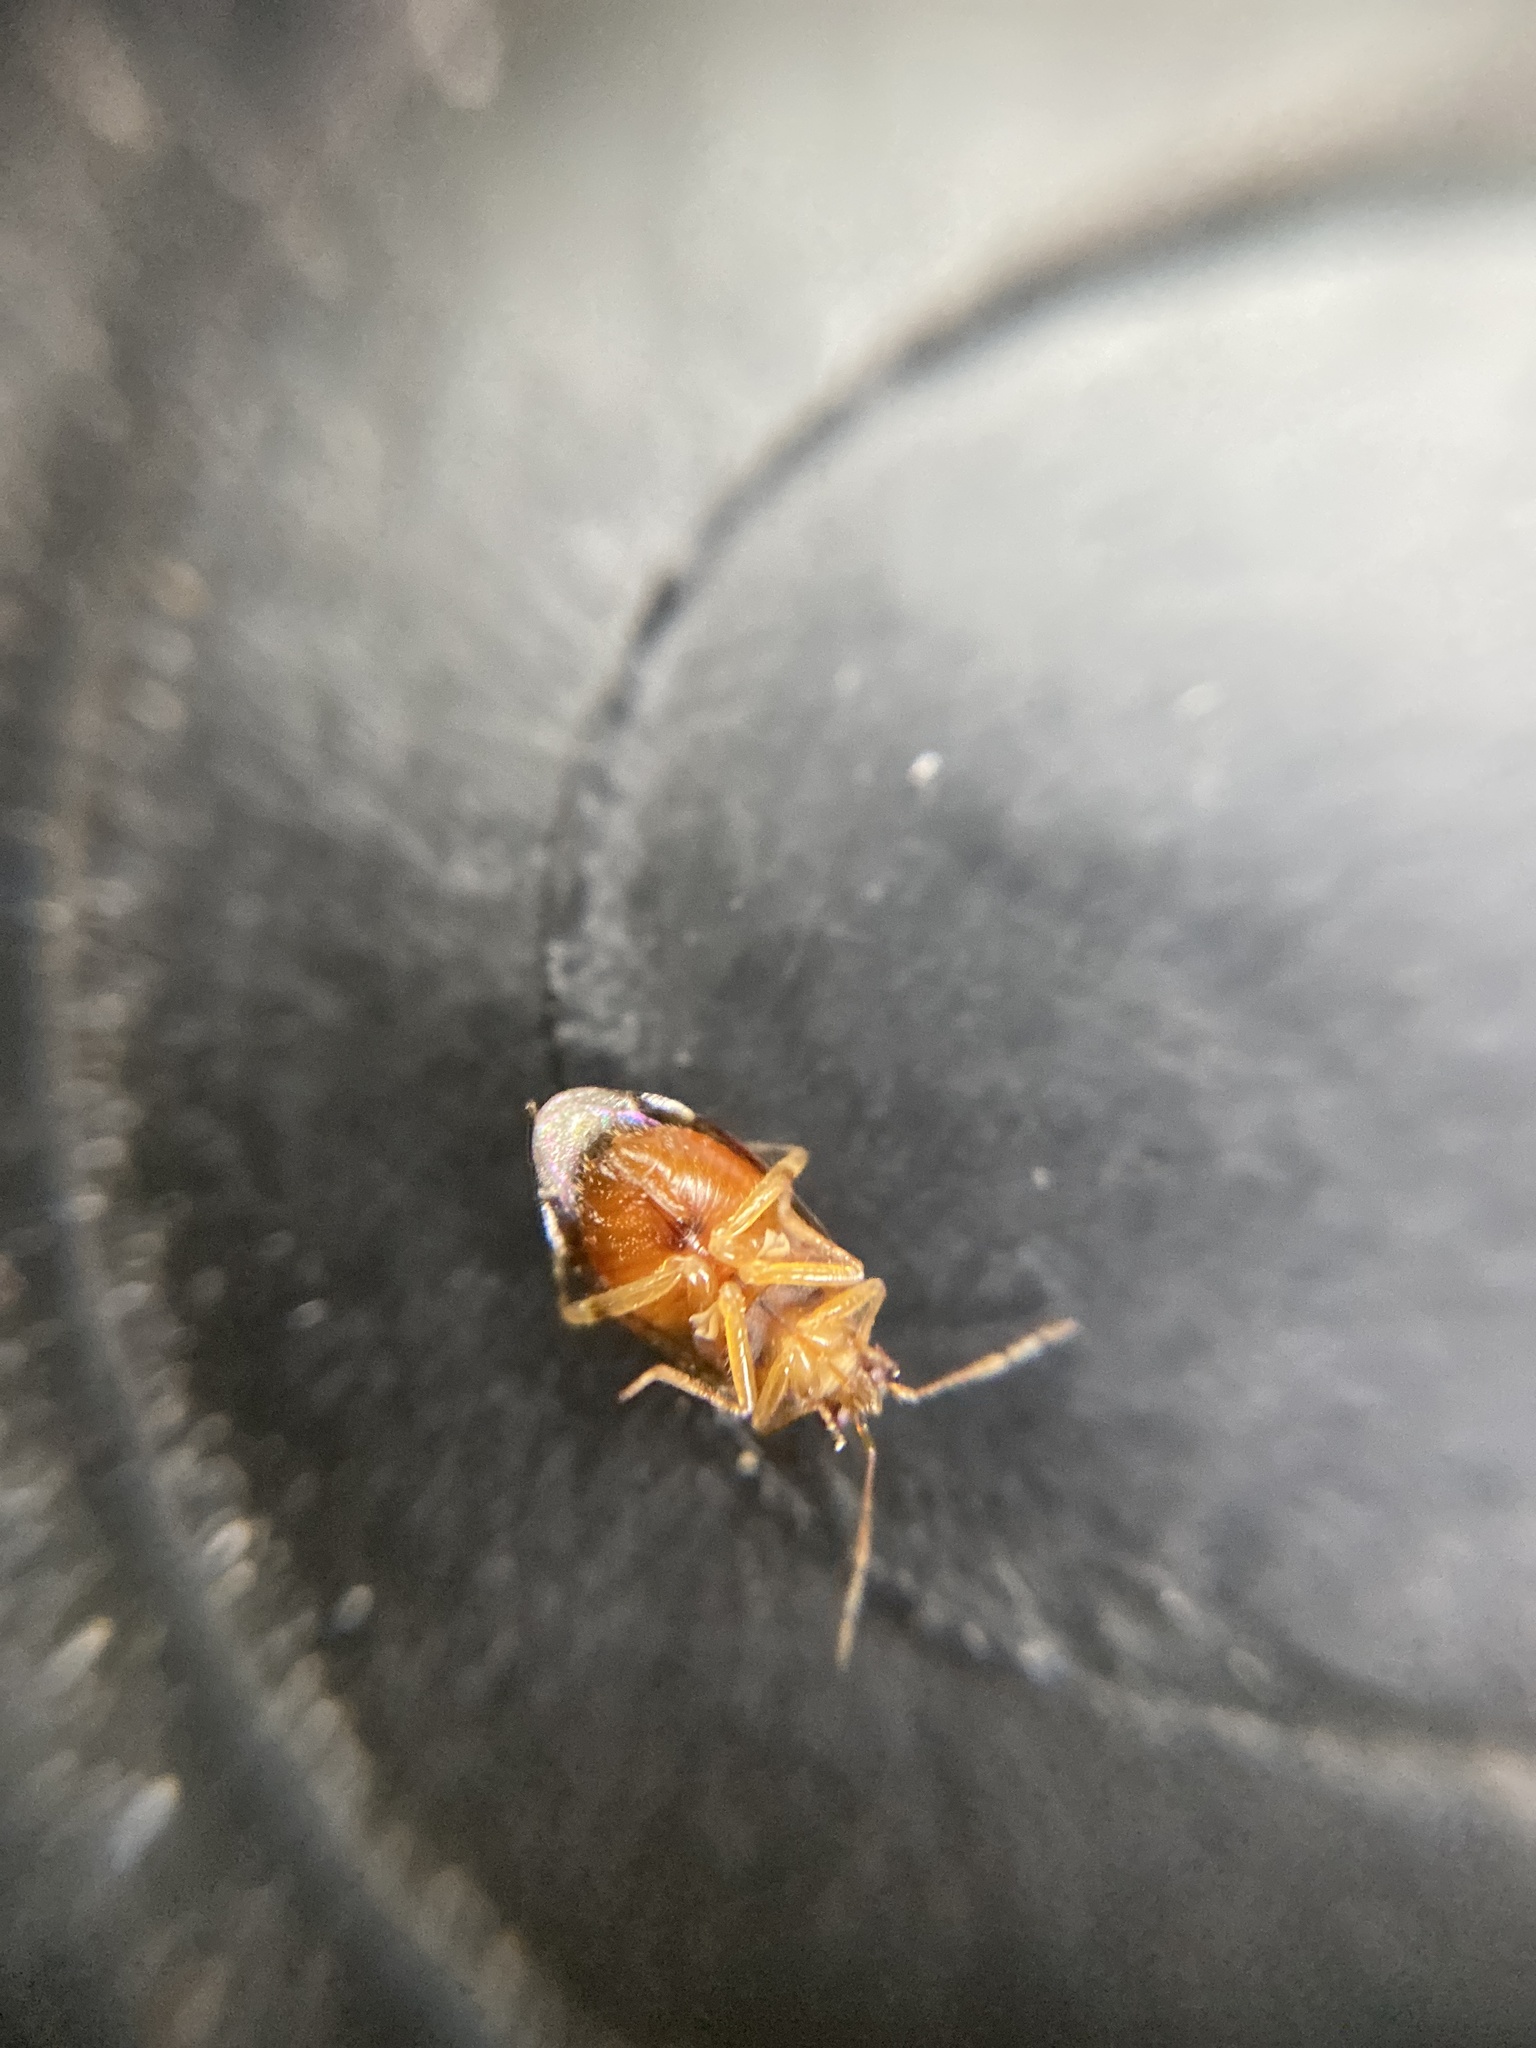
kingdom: Animalia
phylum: Arthropoda
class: Insecta
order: Hemiptera
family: Miridae
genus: Deraeocoris
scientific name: Deraeocoris lutescens
